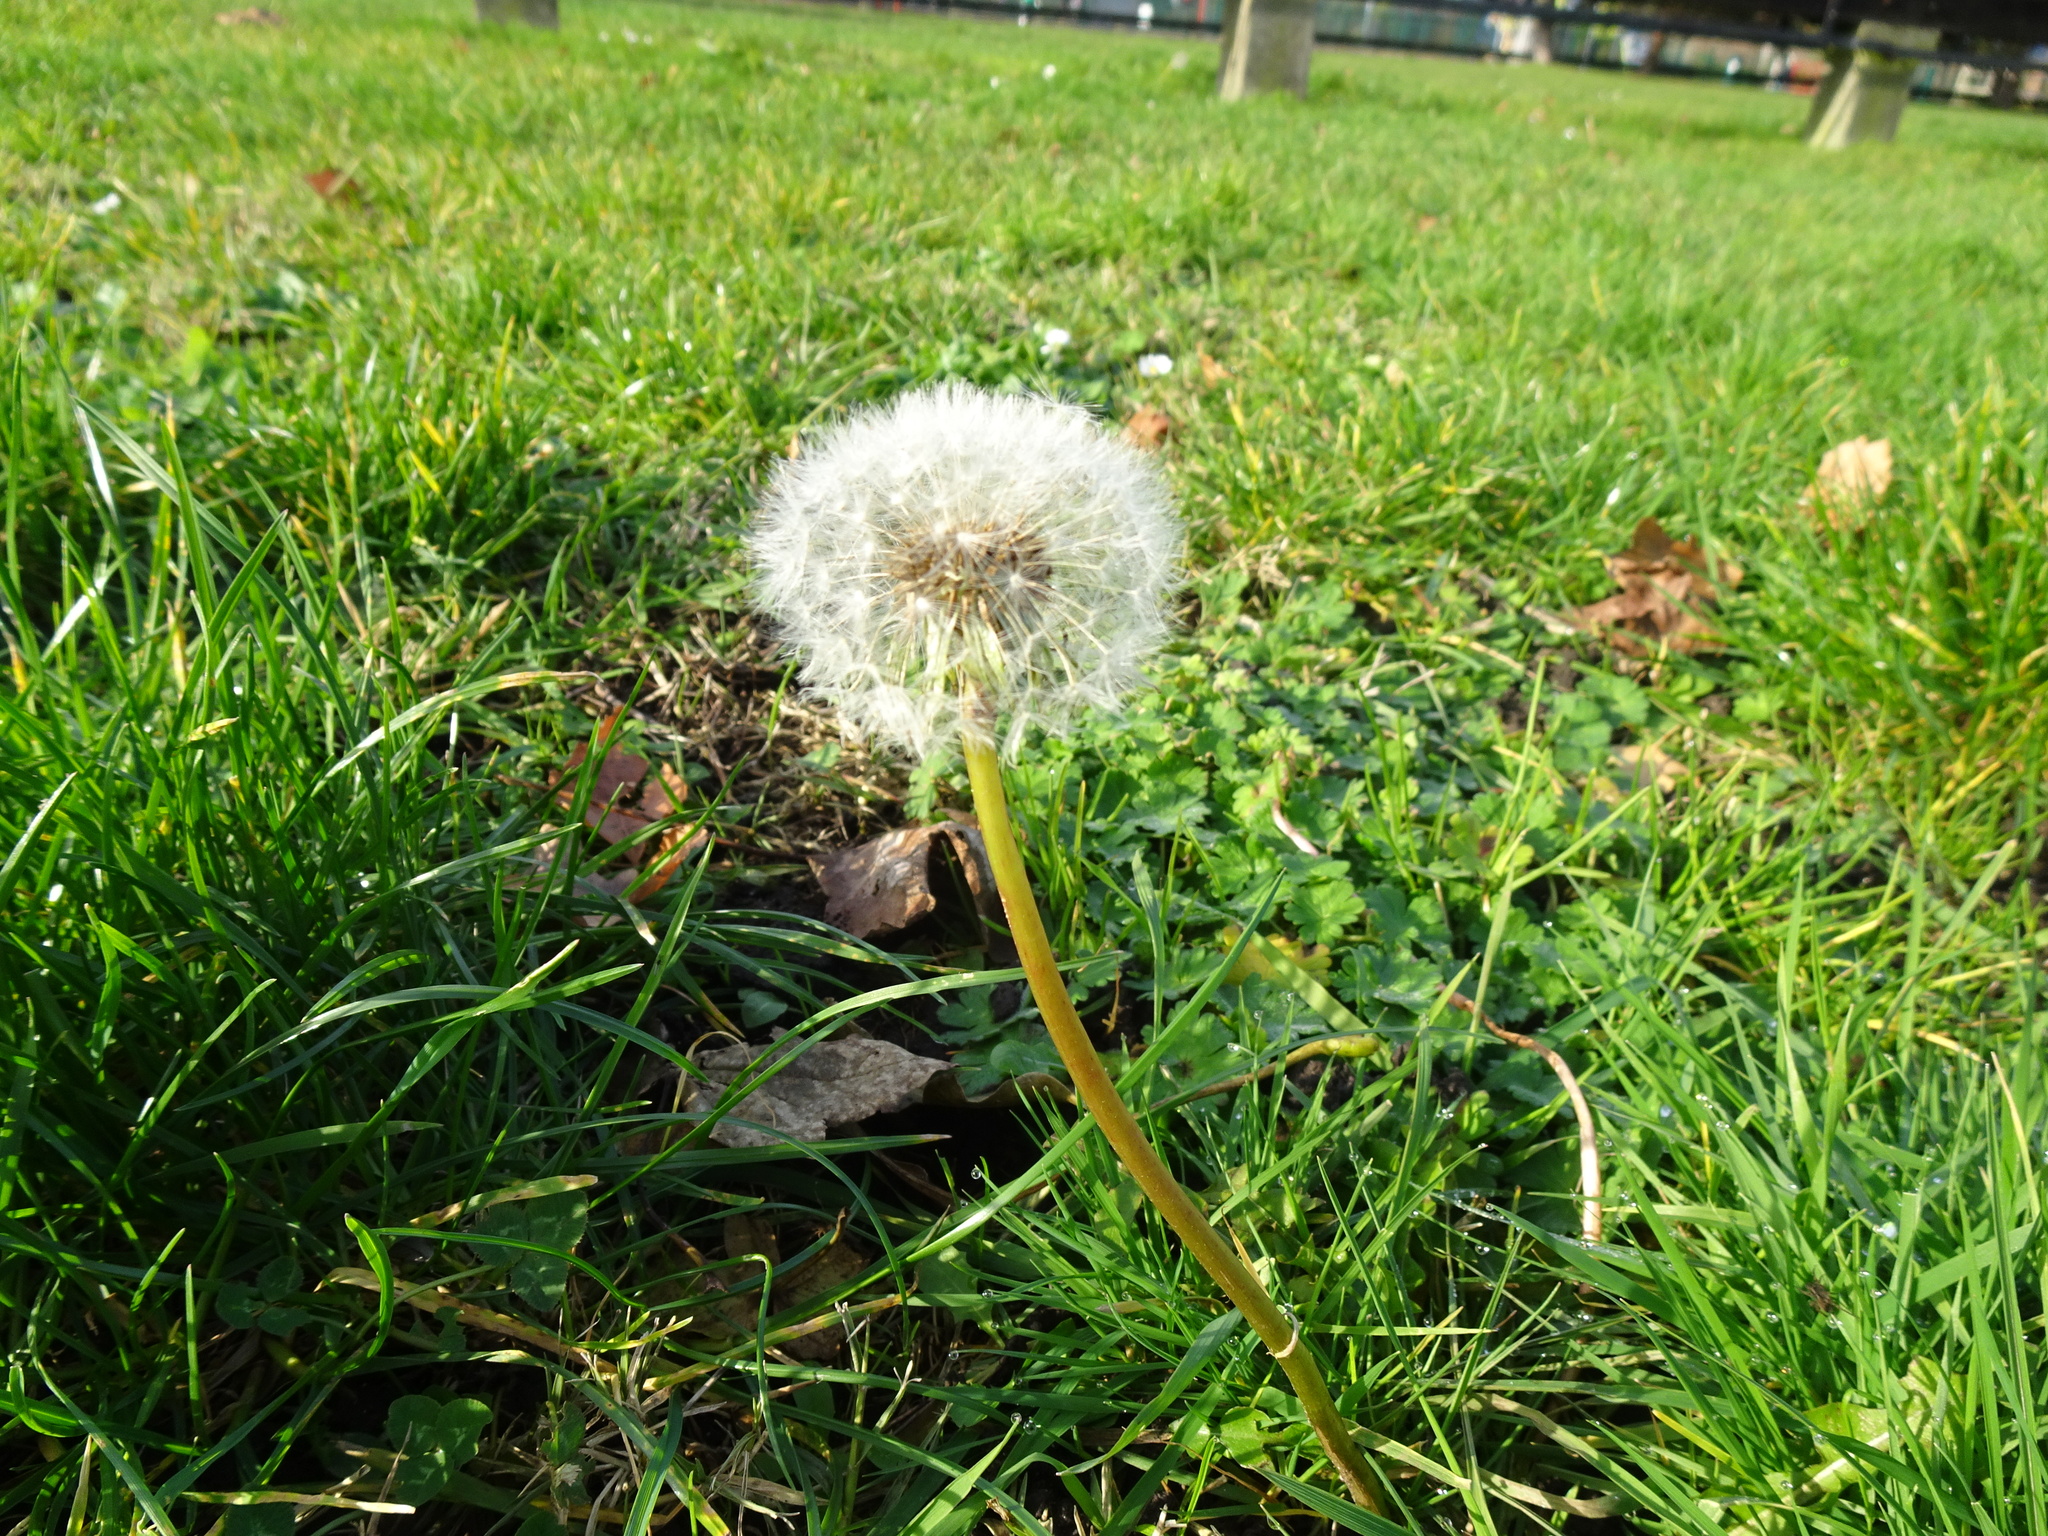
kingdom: Plantae
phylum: Tracheophyta
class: Magnoliopsida
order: Asterales
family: Asteraceae
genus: Taraxacum
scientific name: Taraxacum officinale
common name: Common dandelion
